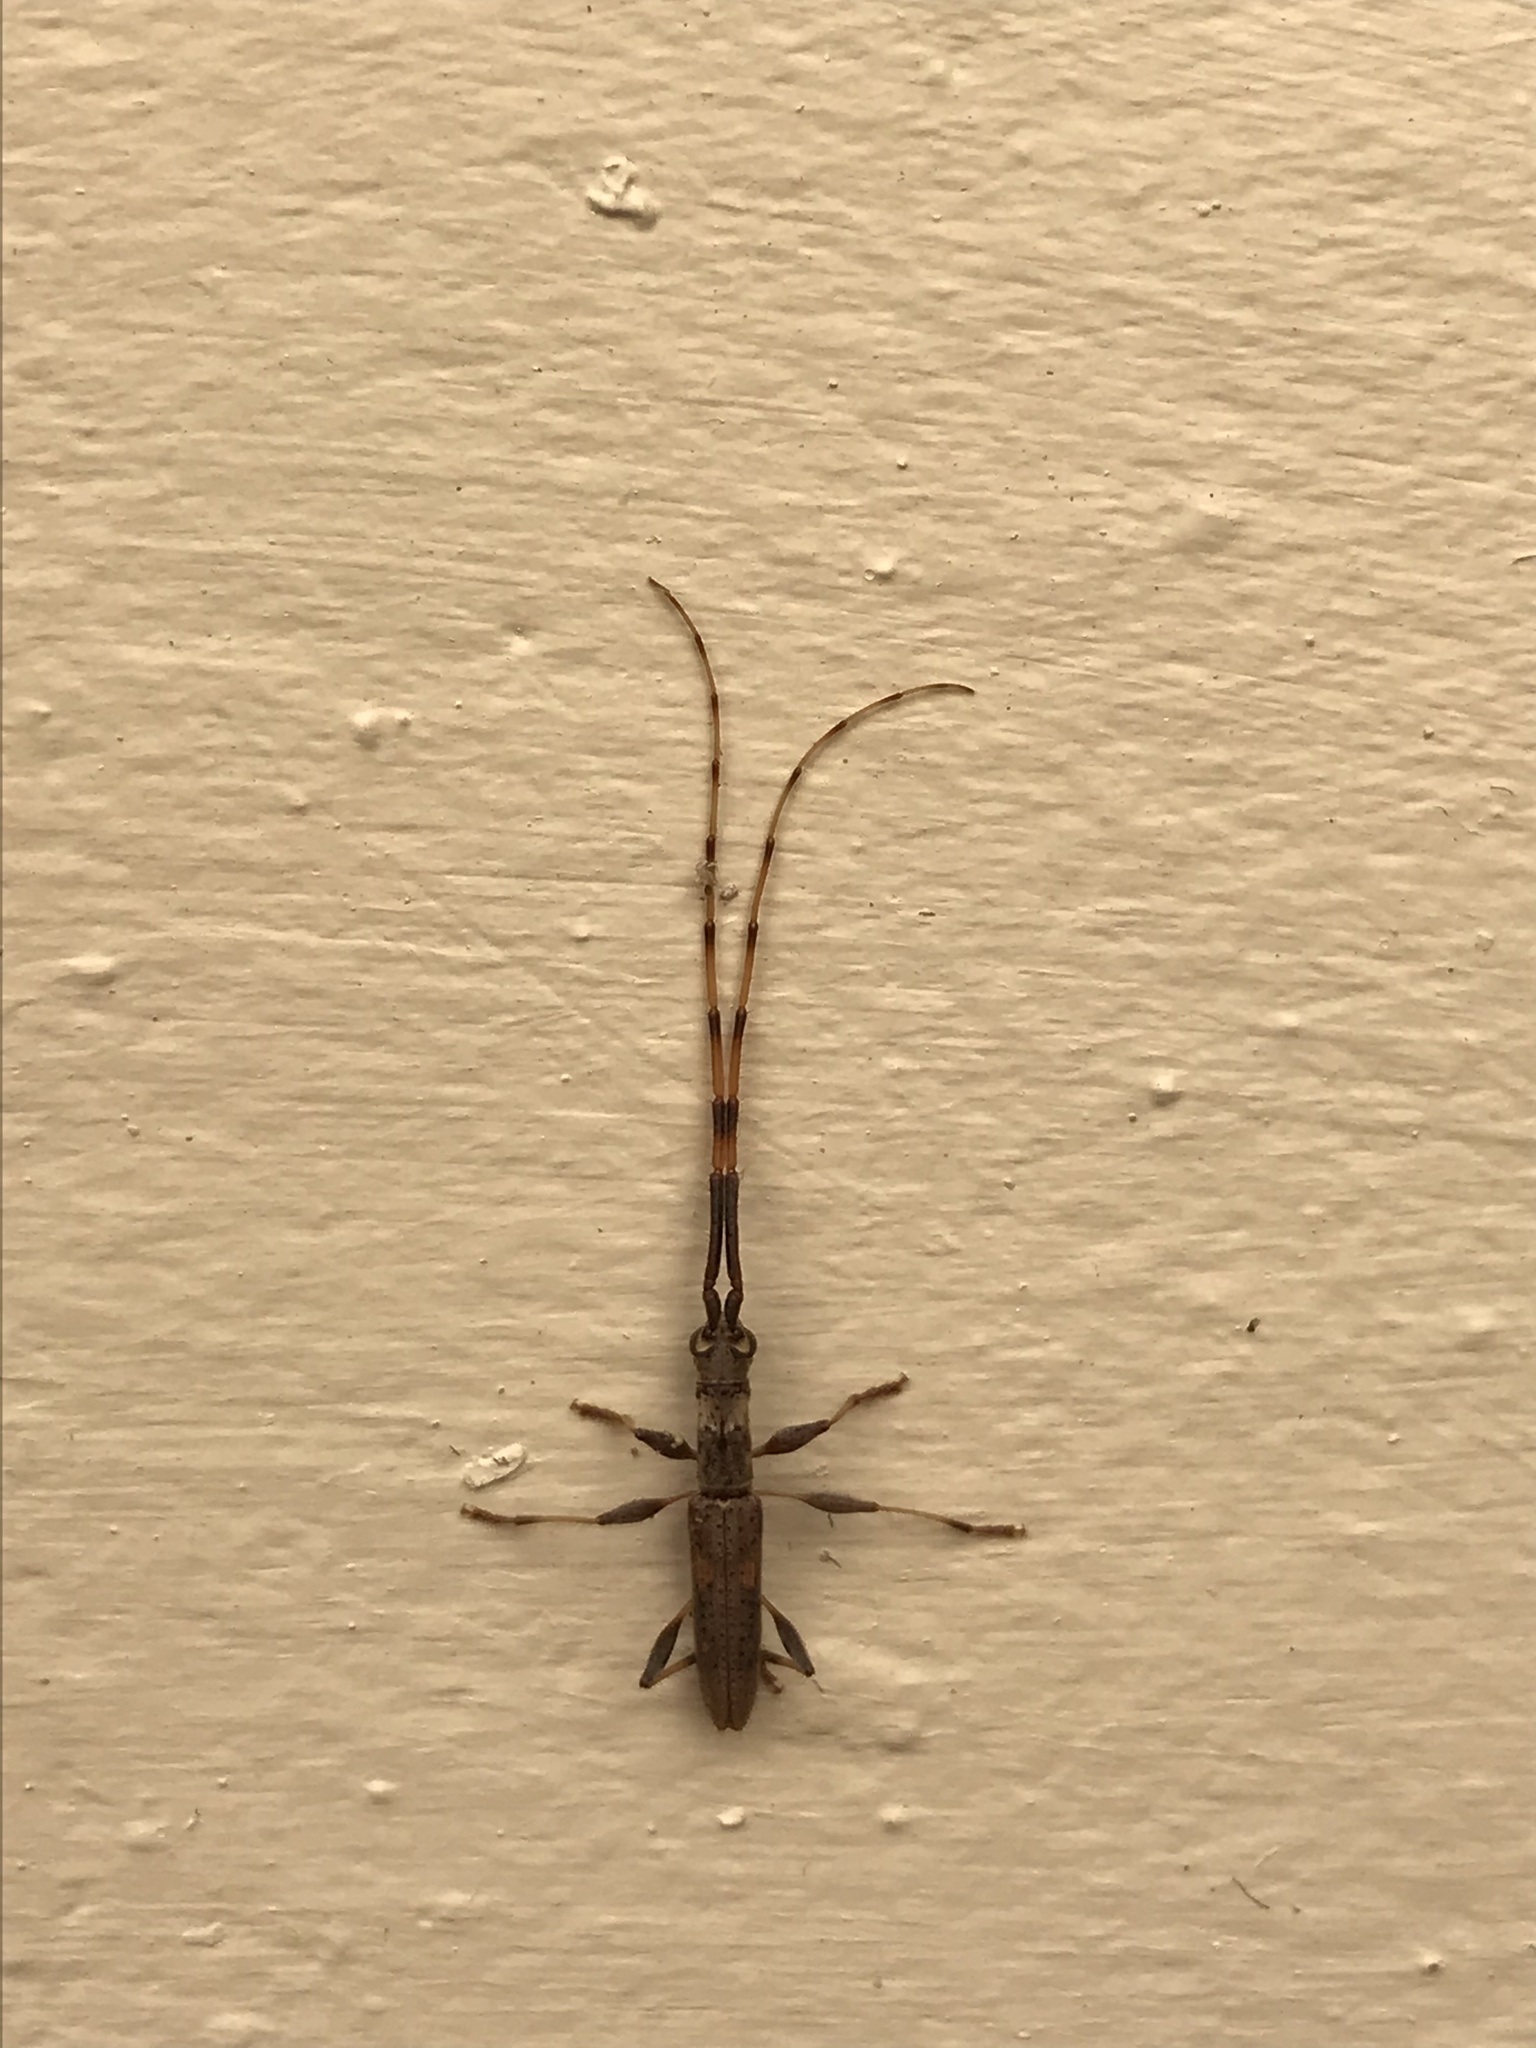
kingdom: Animalia
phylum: Arthropoda
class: Insecta
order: Coleoptera
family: Cerambycidae
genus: Neocompsa
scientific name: Neocompsa cylindricollis
